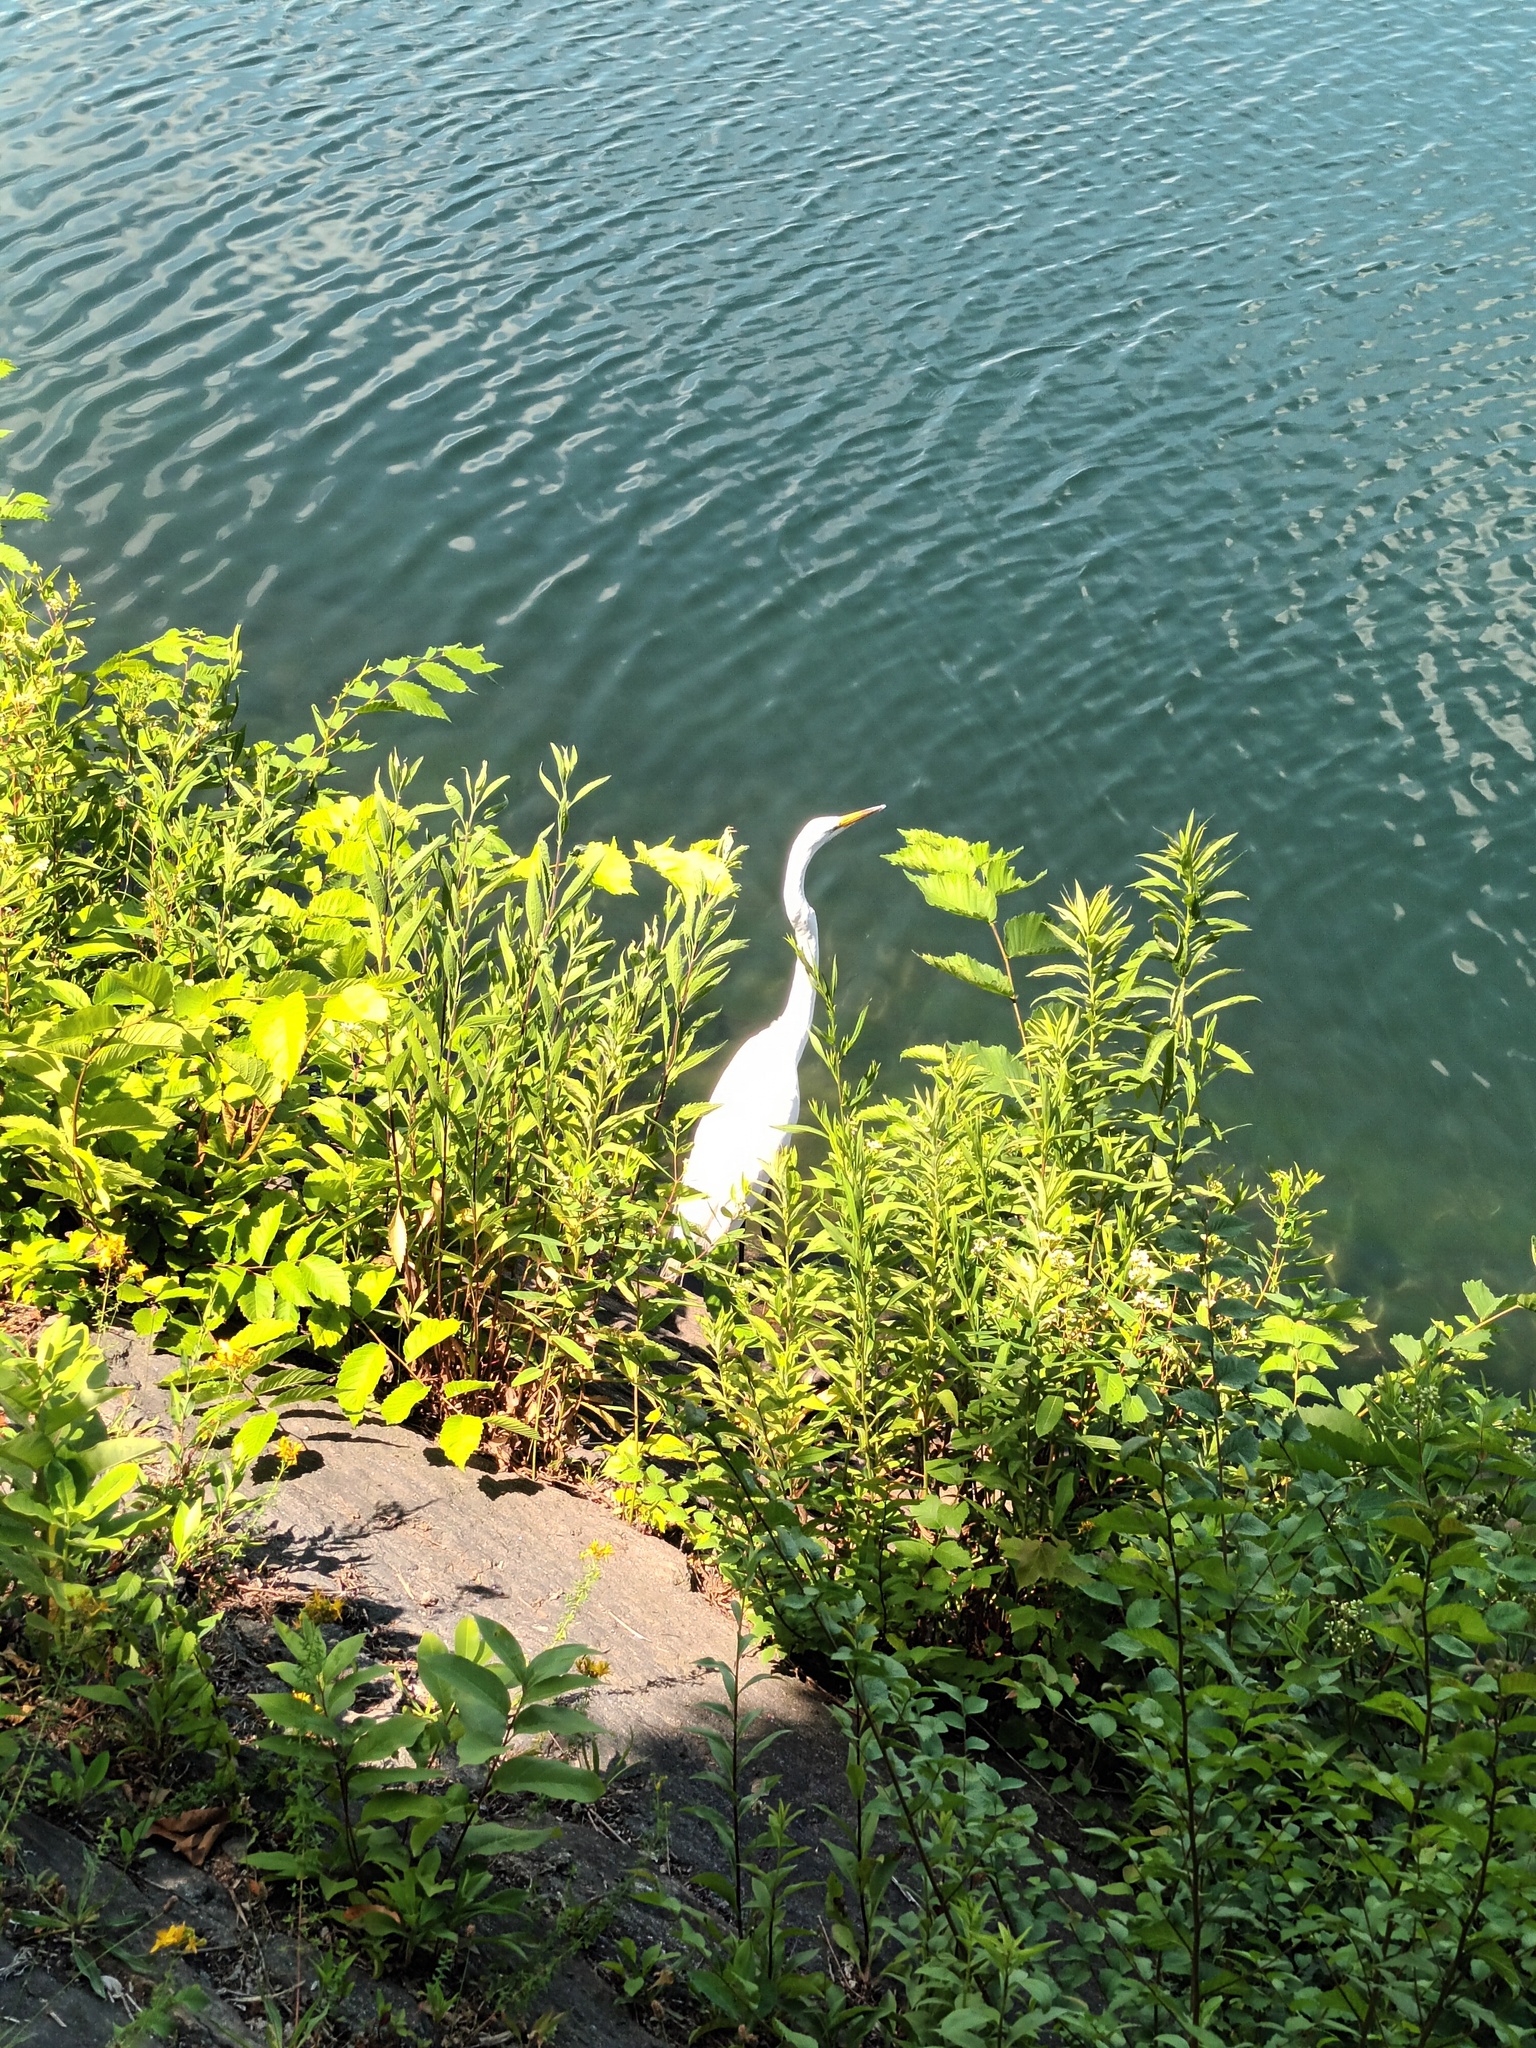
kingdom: Animalia
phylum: Chordata
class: Aves
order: Pelecaniformes
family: Ardeidae
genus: Ardea
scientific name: Ardea alba
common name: Great egret
